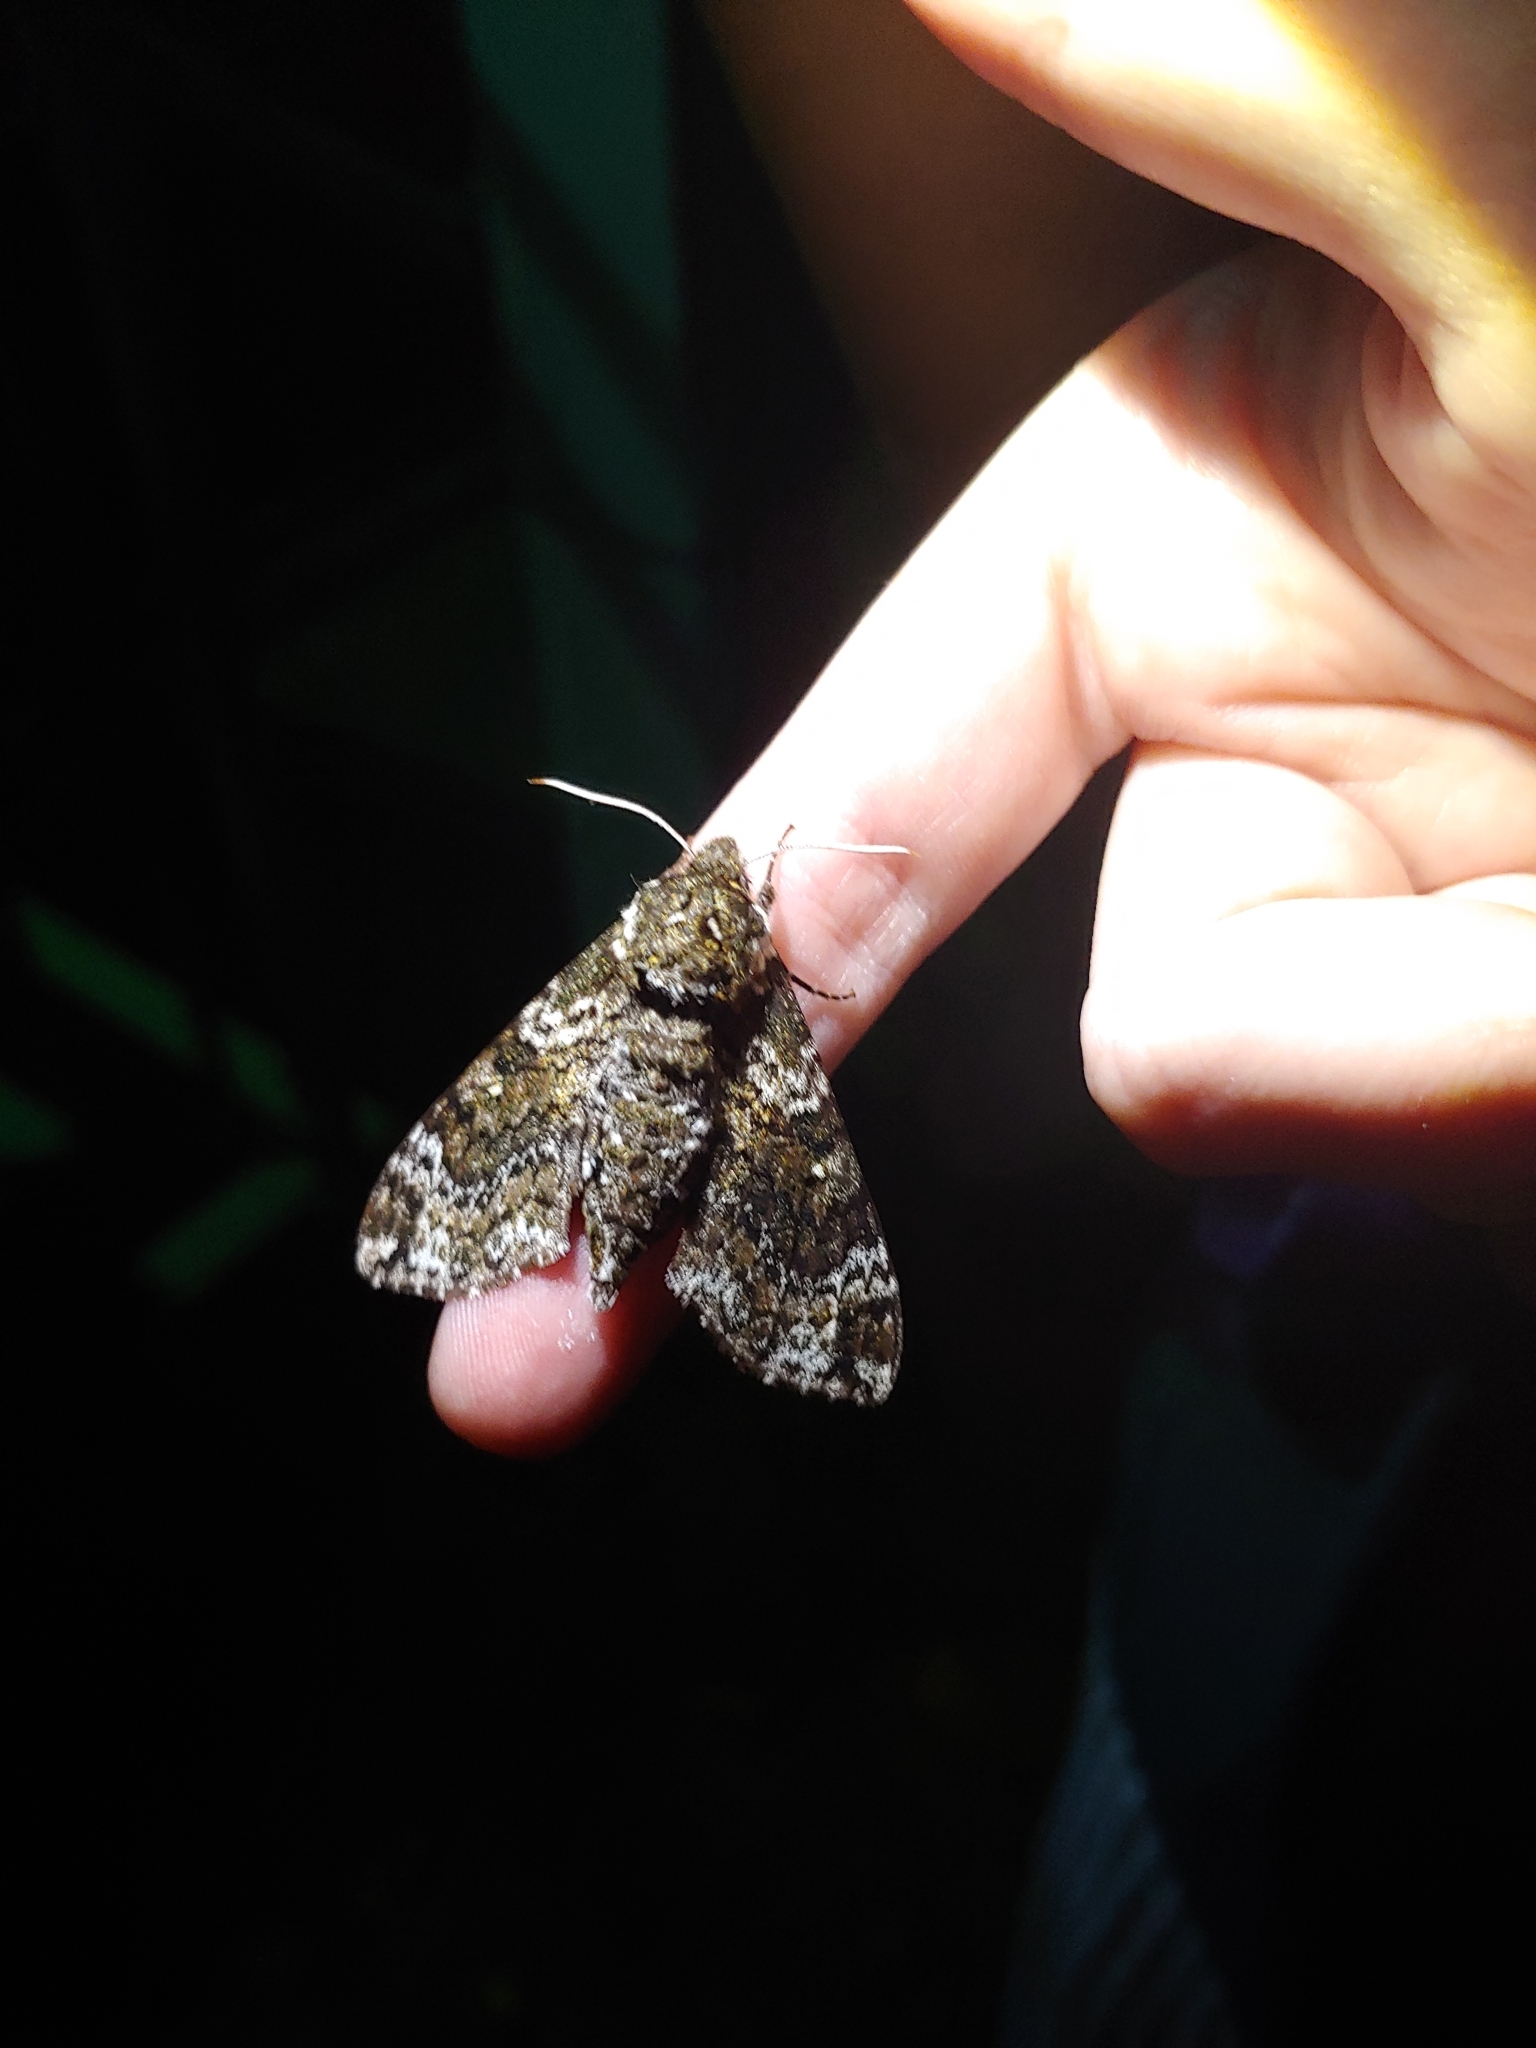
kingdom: Animalia
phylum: Arthropoda
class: Insecta
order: Lepidoptera
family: Sphingidae
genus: Dolba
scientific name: Dolba hyloeus
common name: Pawpaw sphinx
